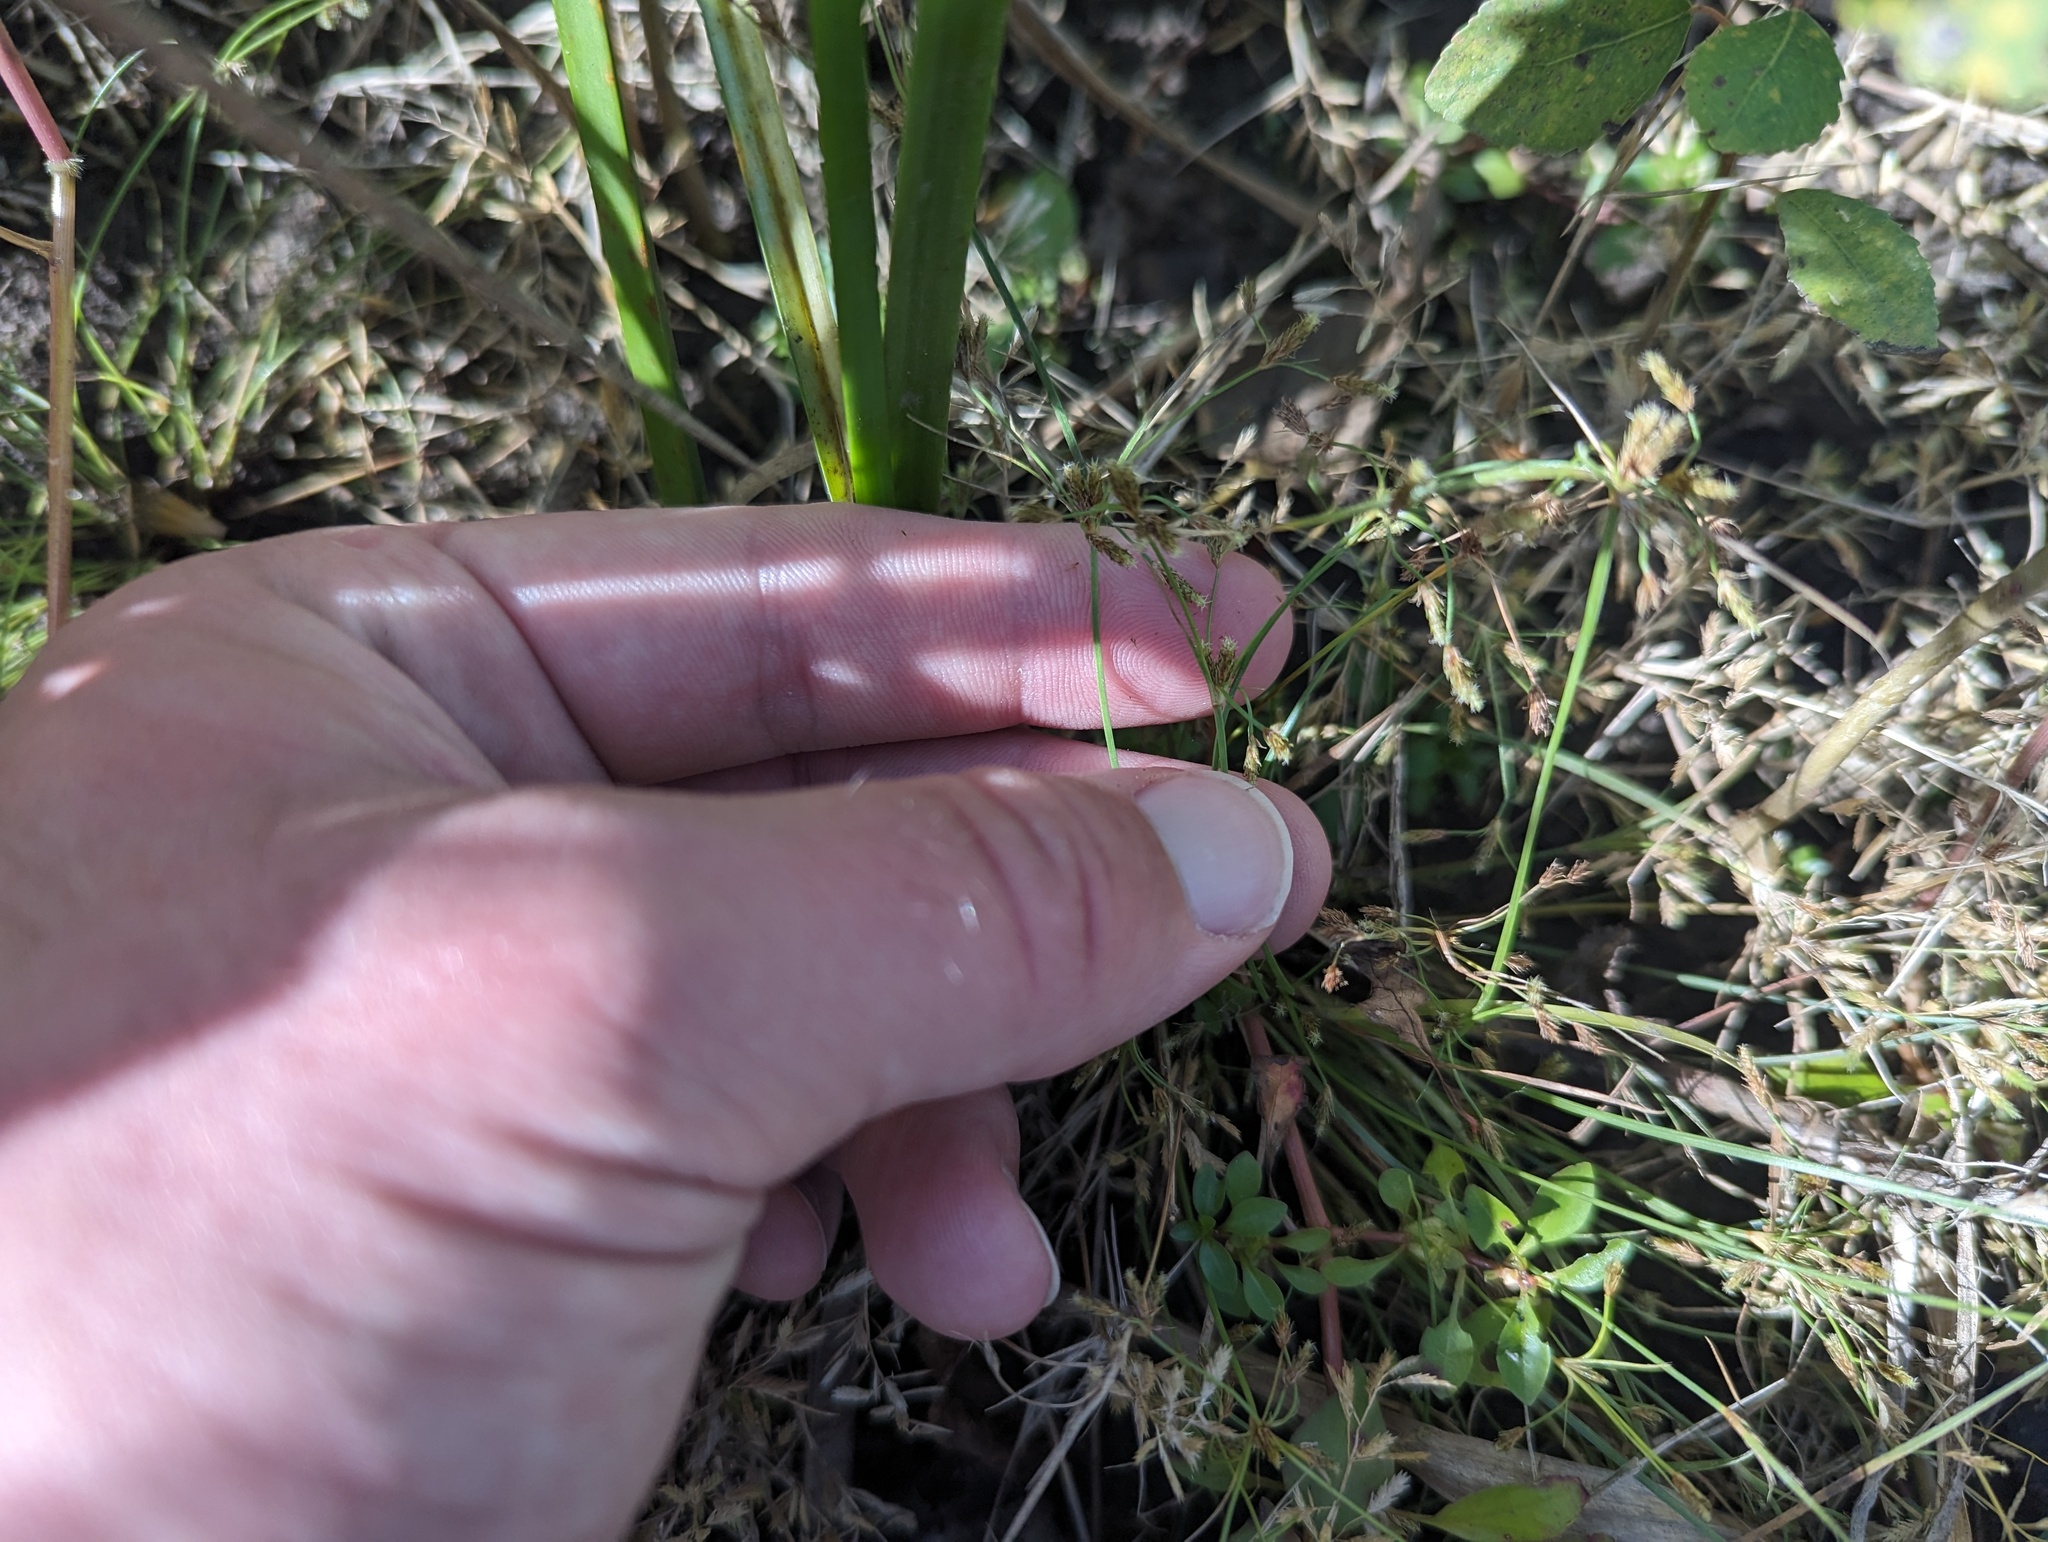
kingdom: Plantae
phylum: Tracheophyta
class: Liliopsida
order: Poales
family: Cyperaceae
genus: Fimbristylis
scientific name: Fimbristylis autumnalis
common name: Slender fimbristylis
